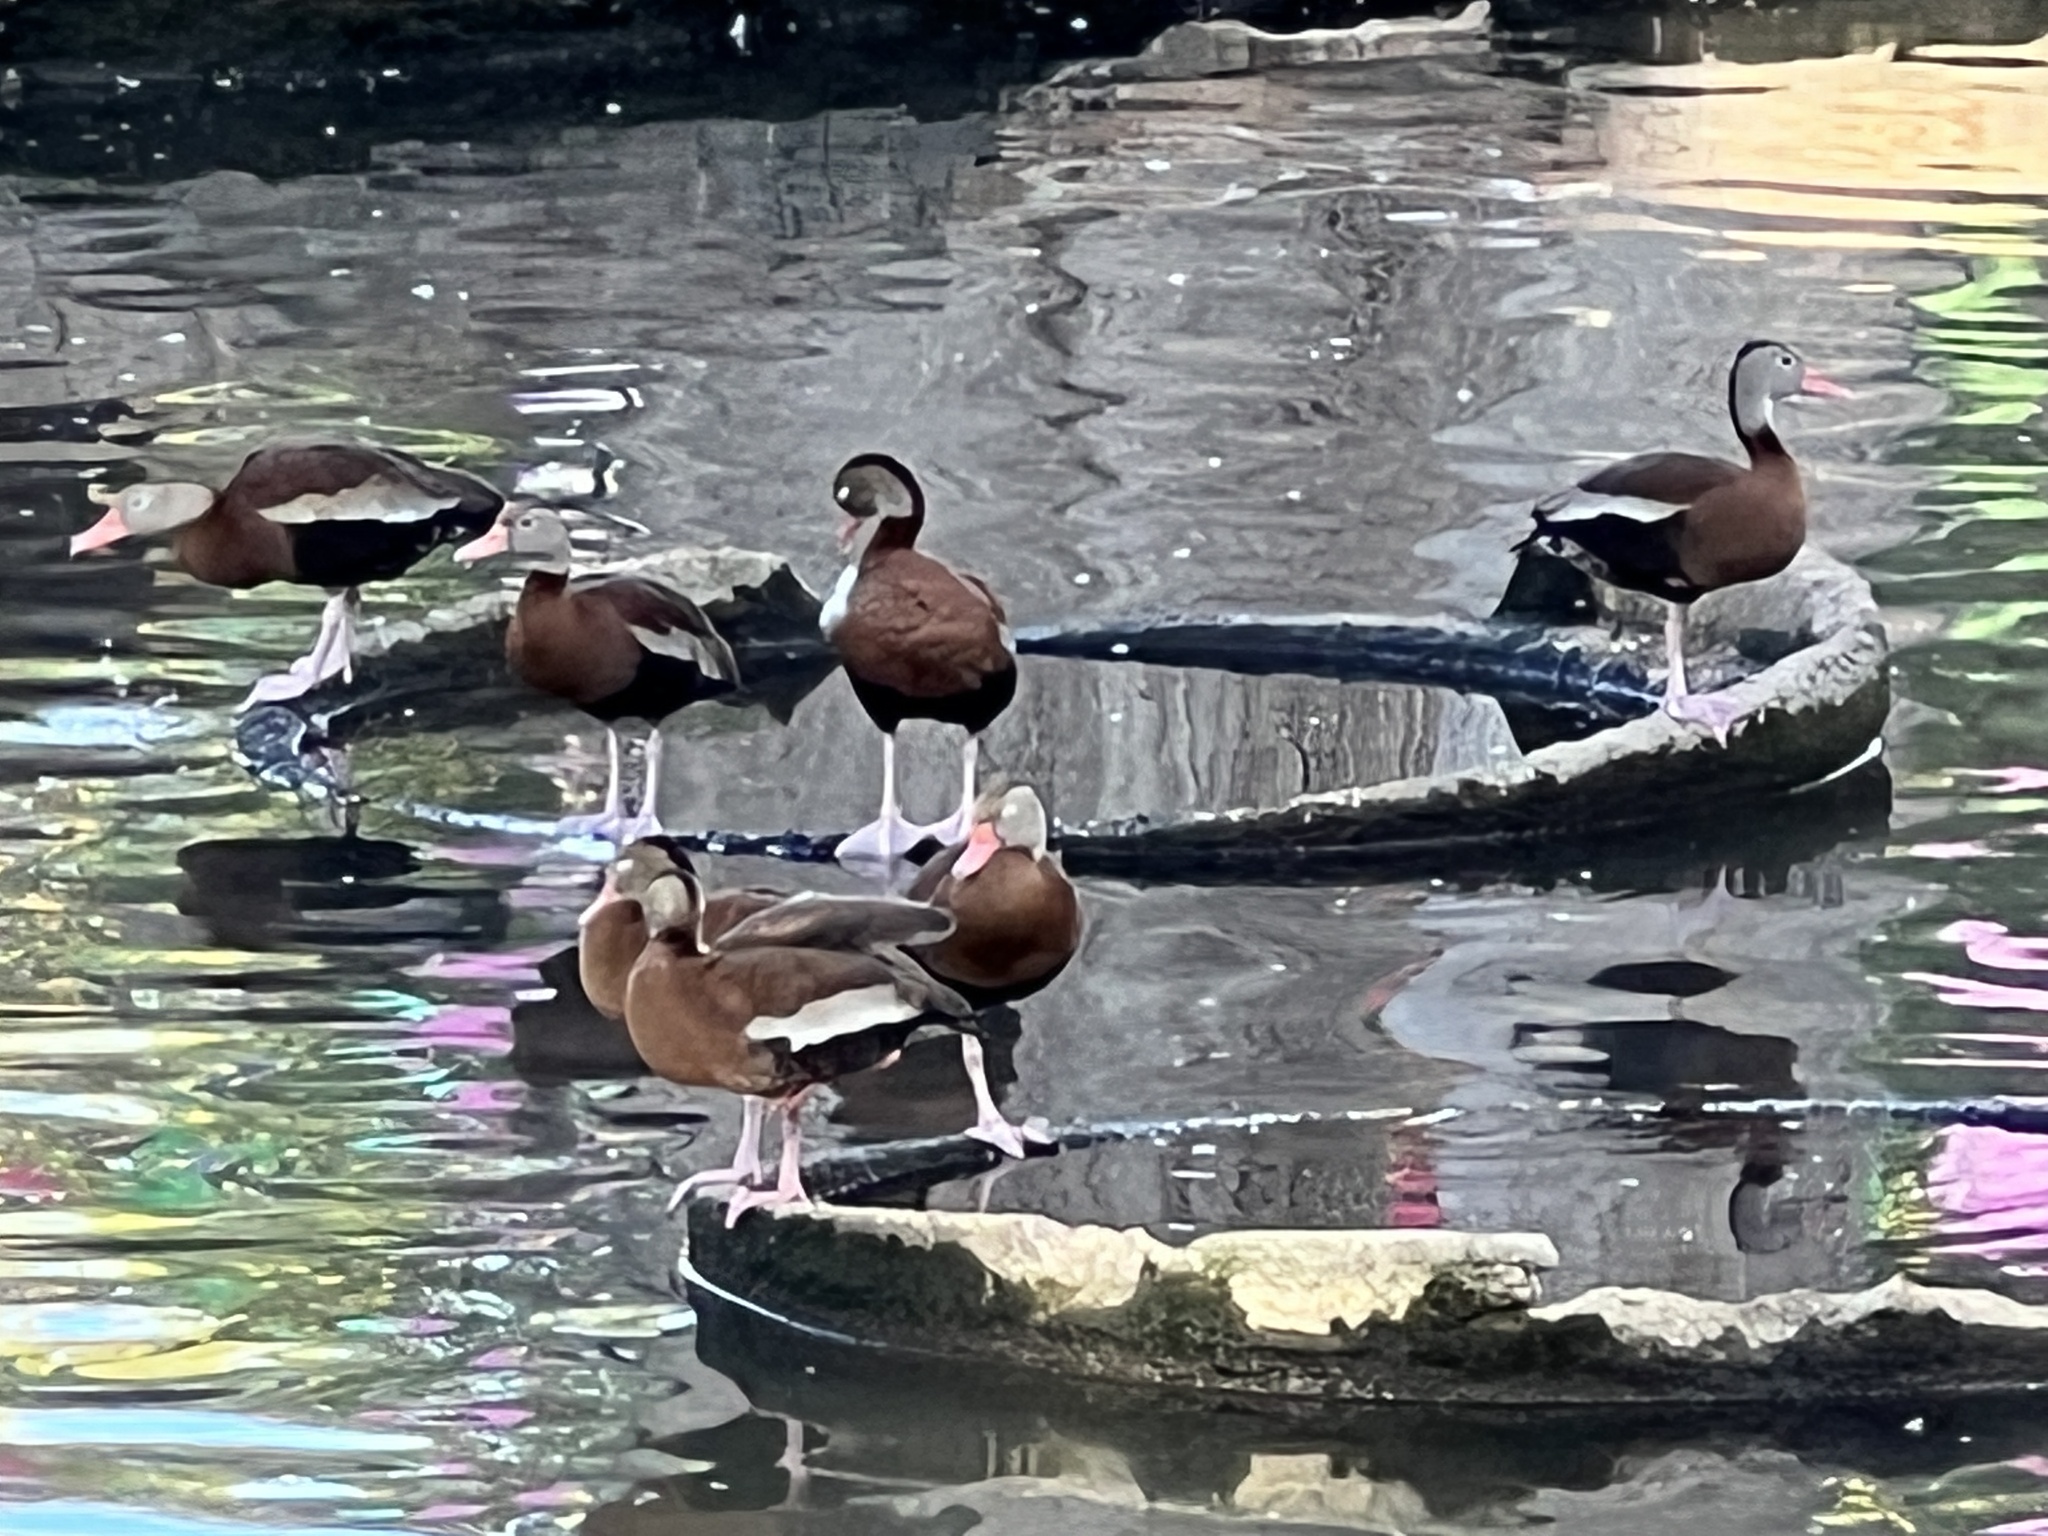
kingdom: Animalia
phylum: Chordata
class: Aves
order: Anseriformes
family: Anatidae
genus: Dendrocygna
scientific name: Dendrocygna autumnalis
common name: Black-bellied whistling duck
